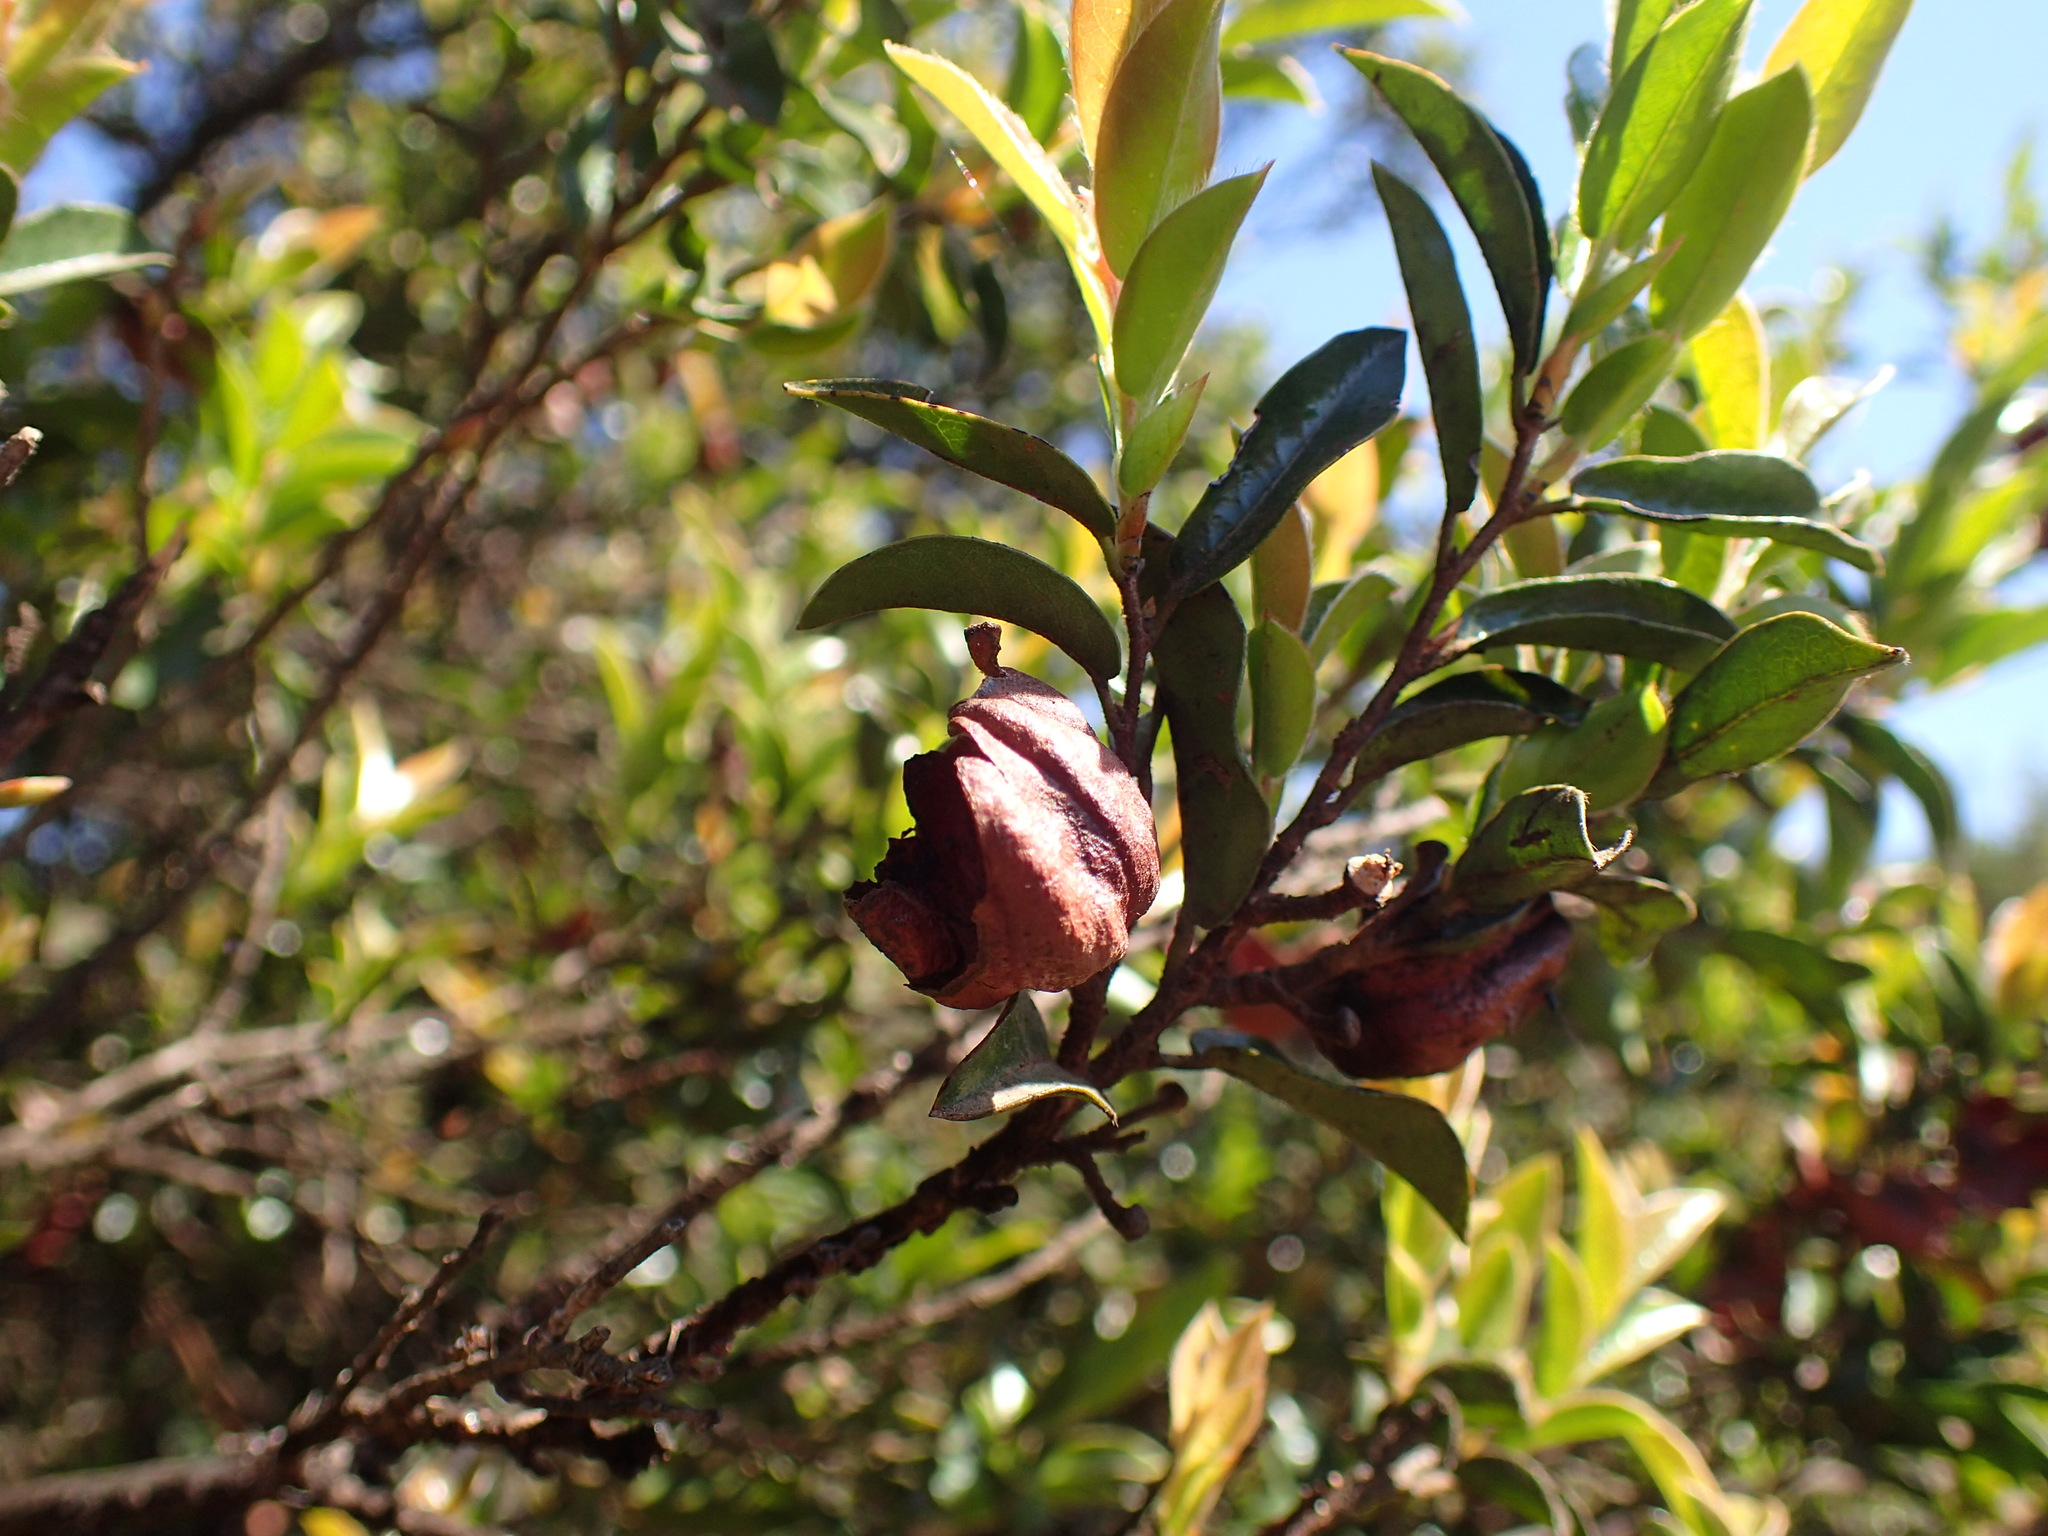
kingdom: Plantae
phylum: Tracheophyta
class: Magnoliopsida
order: Ericales
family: Ebenaceae
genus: Diospyros
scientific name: Diospyros whyteana
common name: Bladder-nut
